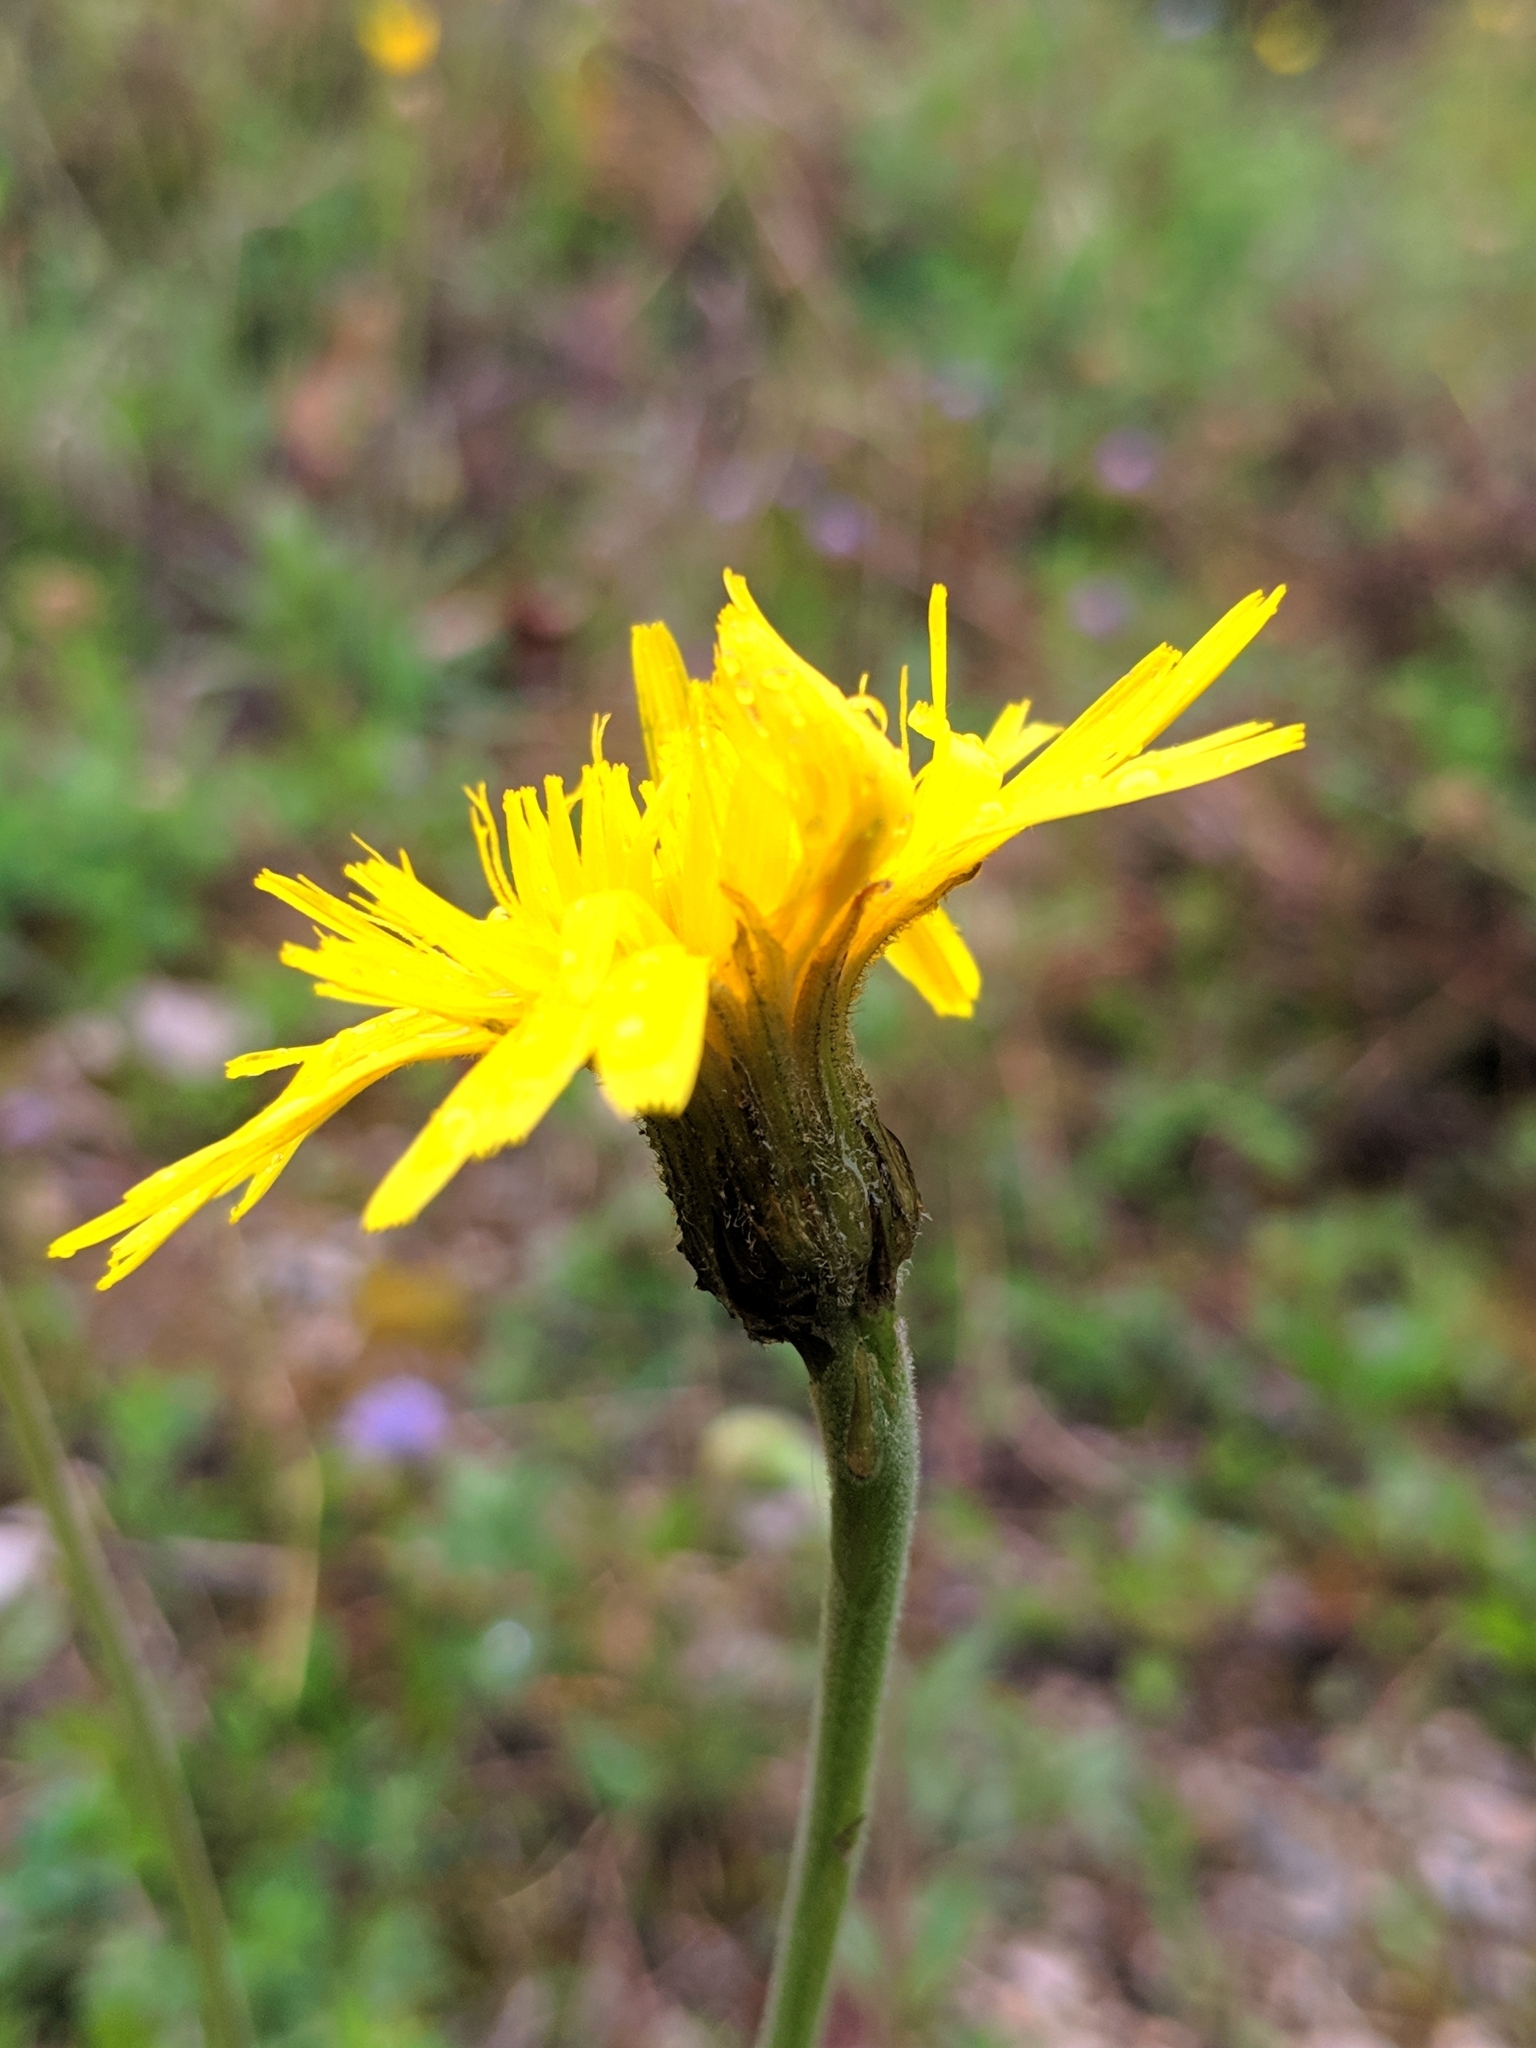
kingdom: Plantae
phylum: Tracheophyta
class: Magnoliopsida
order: Asterales
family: Asteraceae
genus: Leontodon
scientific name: Leontodon incanus
